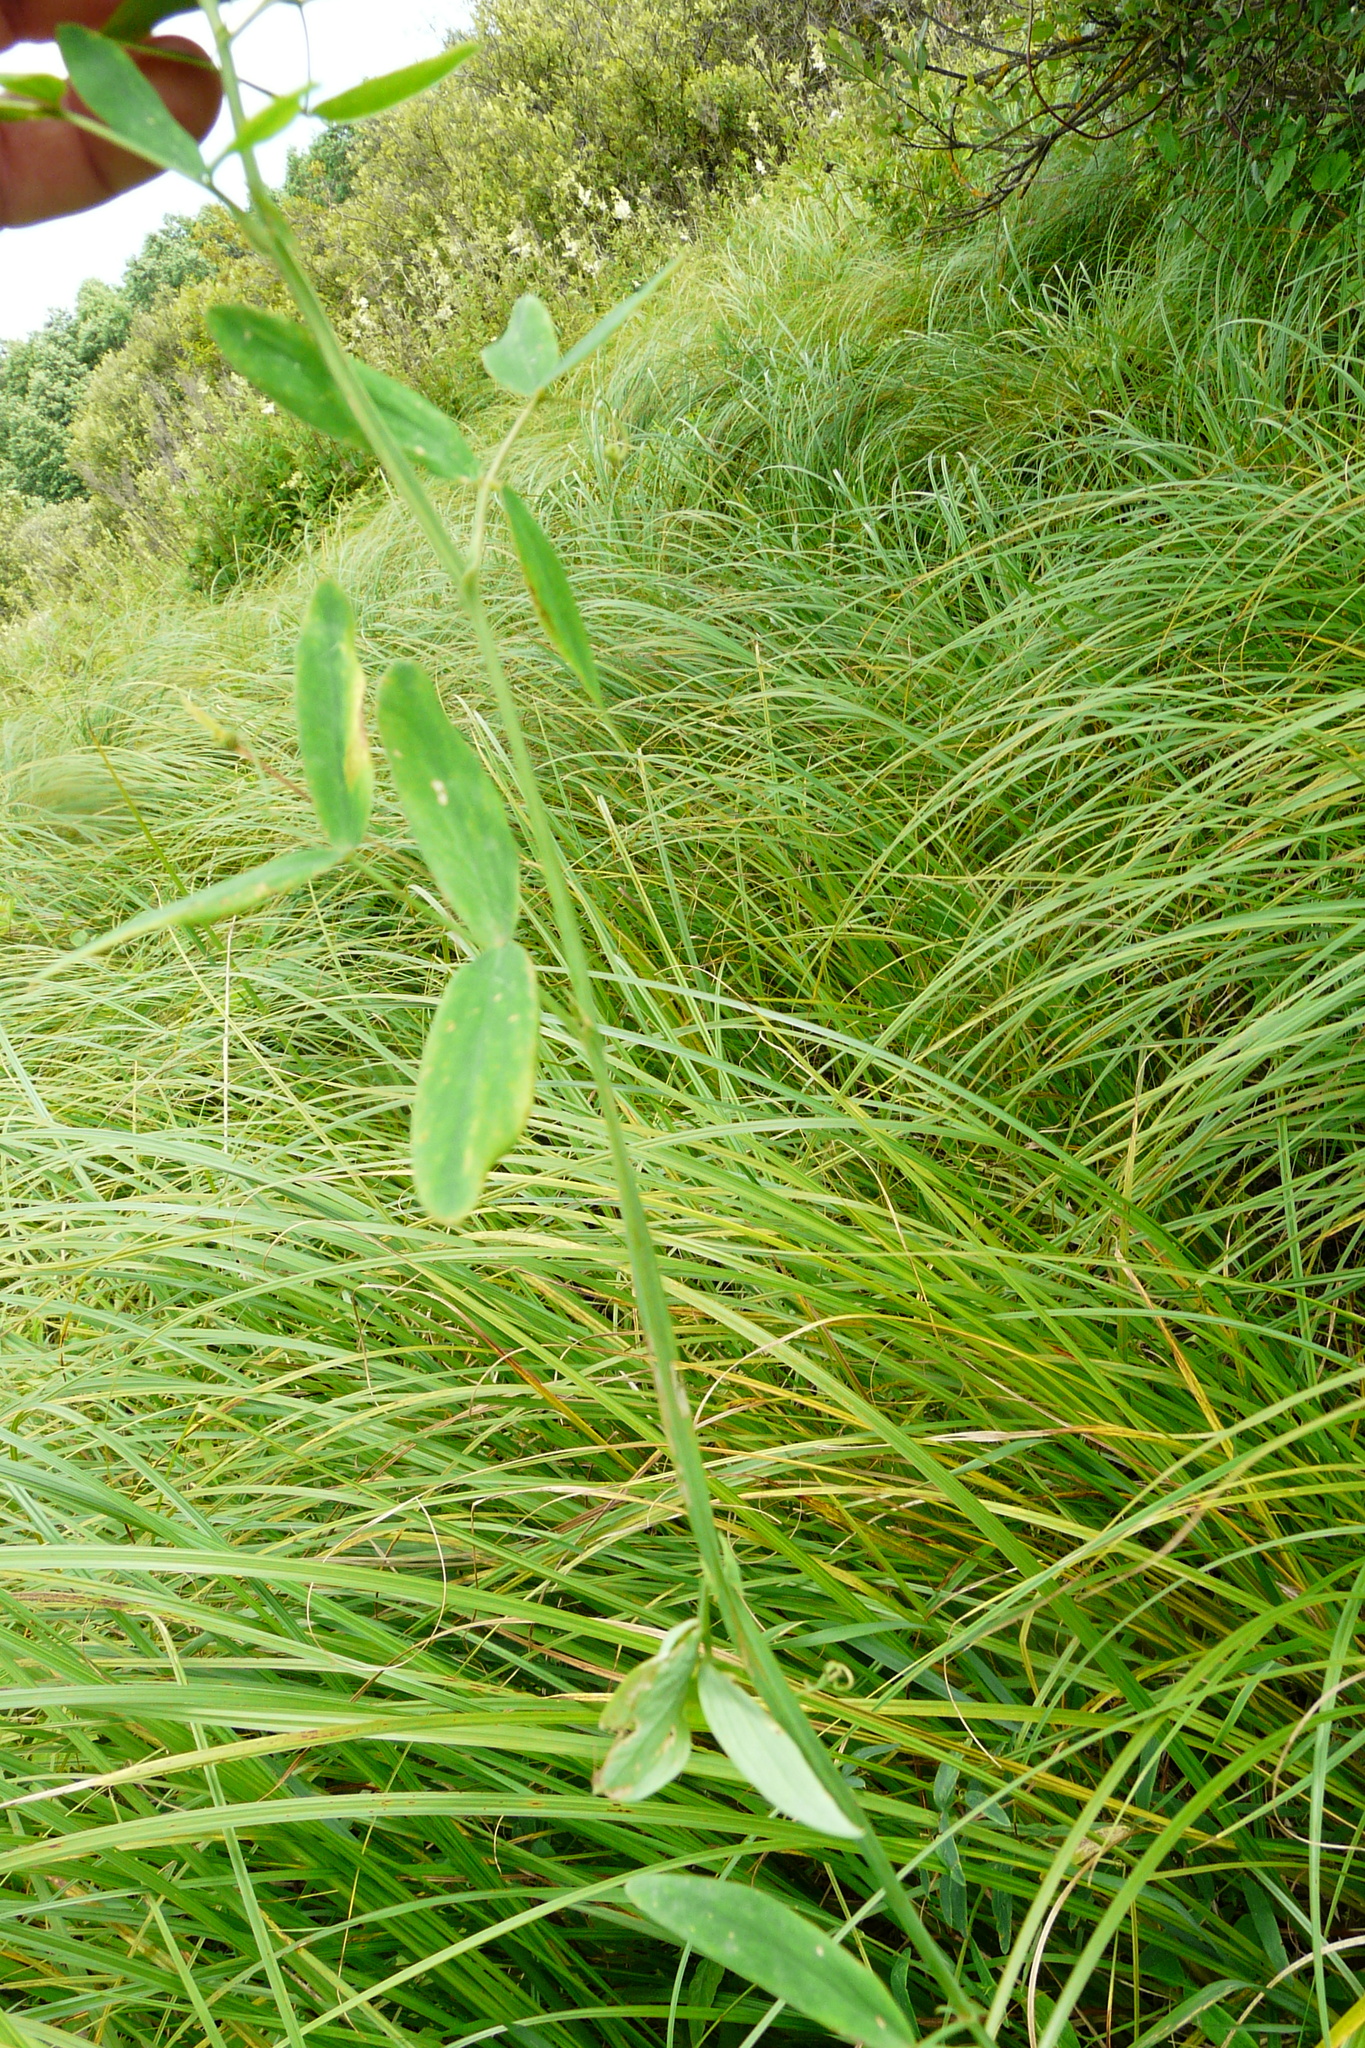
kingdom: Plantae
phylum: Tracheophyta
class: Magnoliopsida
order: Fabales
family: Fabaceae
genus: Lathyrus
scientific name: Lathyrus palustris
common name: Marsh pea
